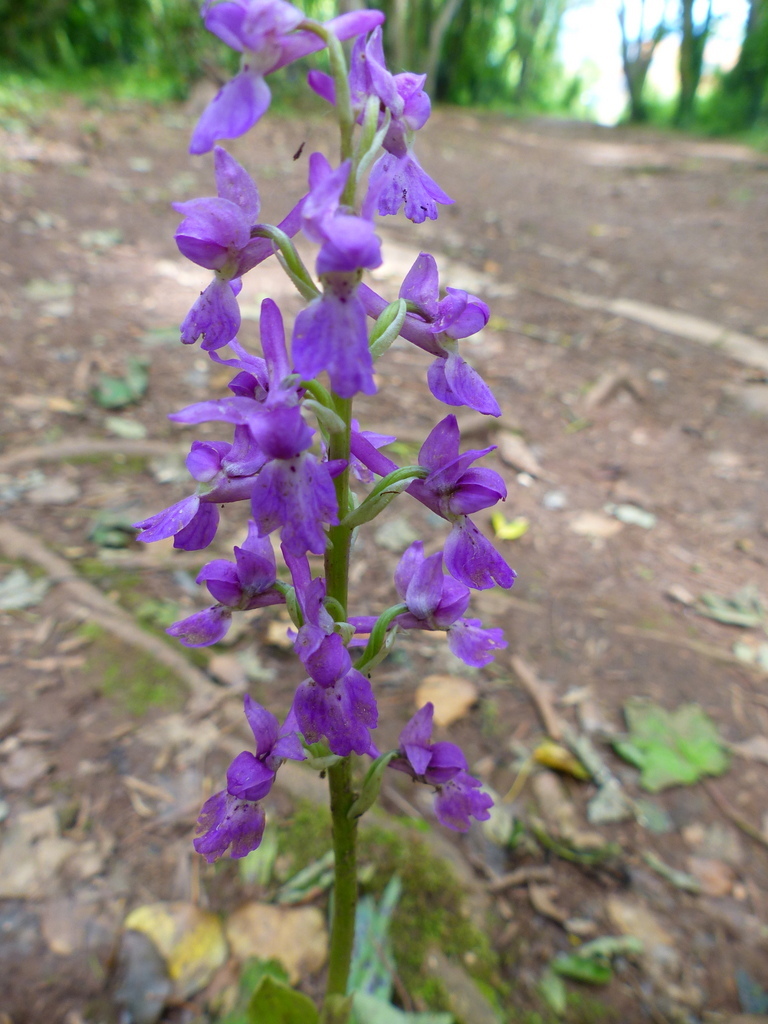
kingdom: Plantae
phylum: Tracheophyta
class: Liliopsida
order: Asparagales
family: Orchidaceae
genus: Orchis
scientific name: Orchis mascula
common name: Early-purple orchid
